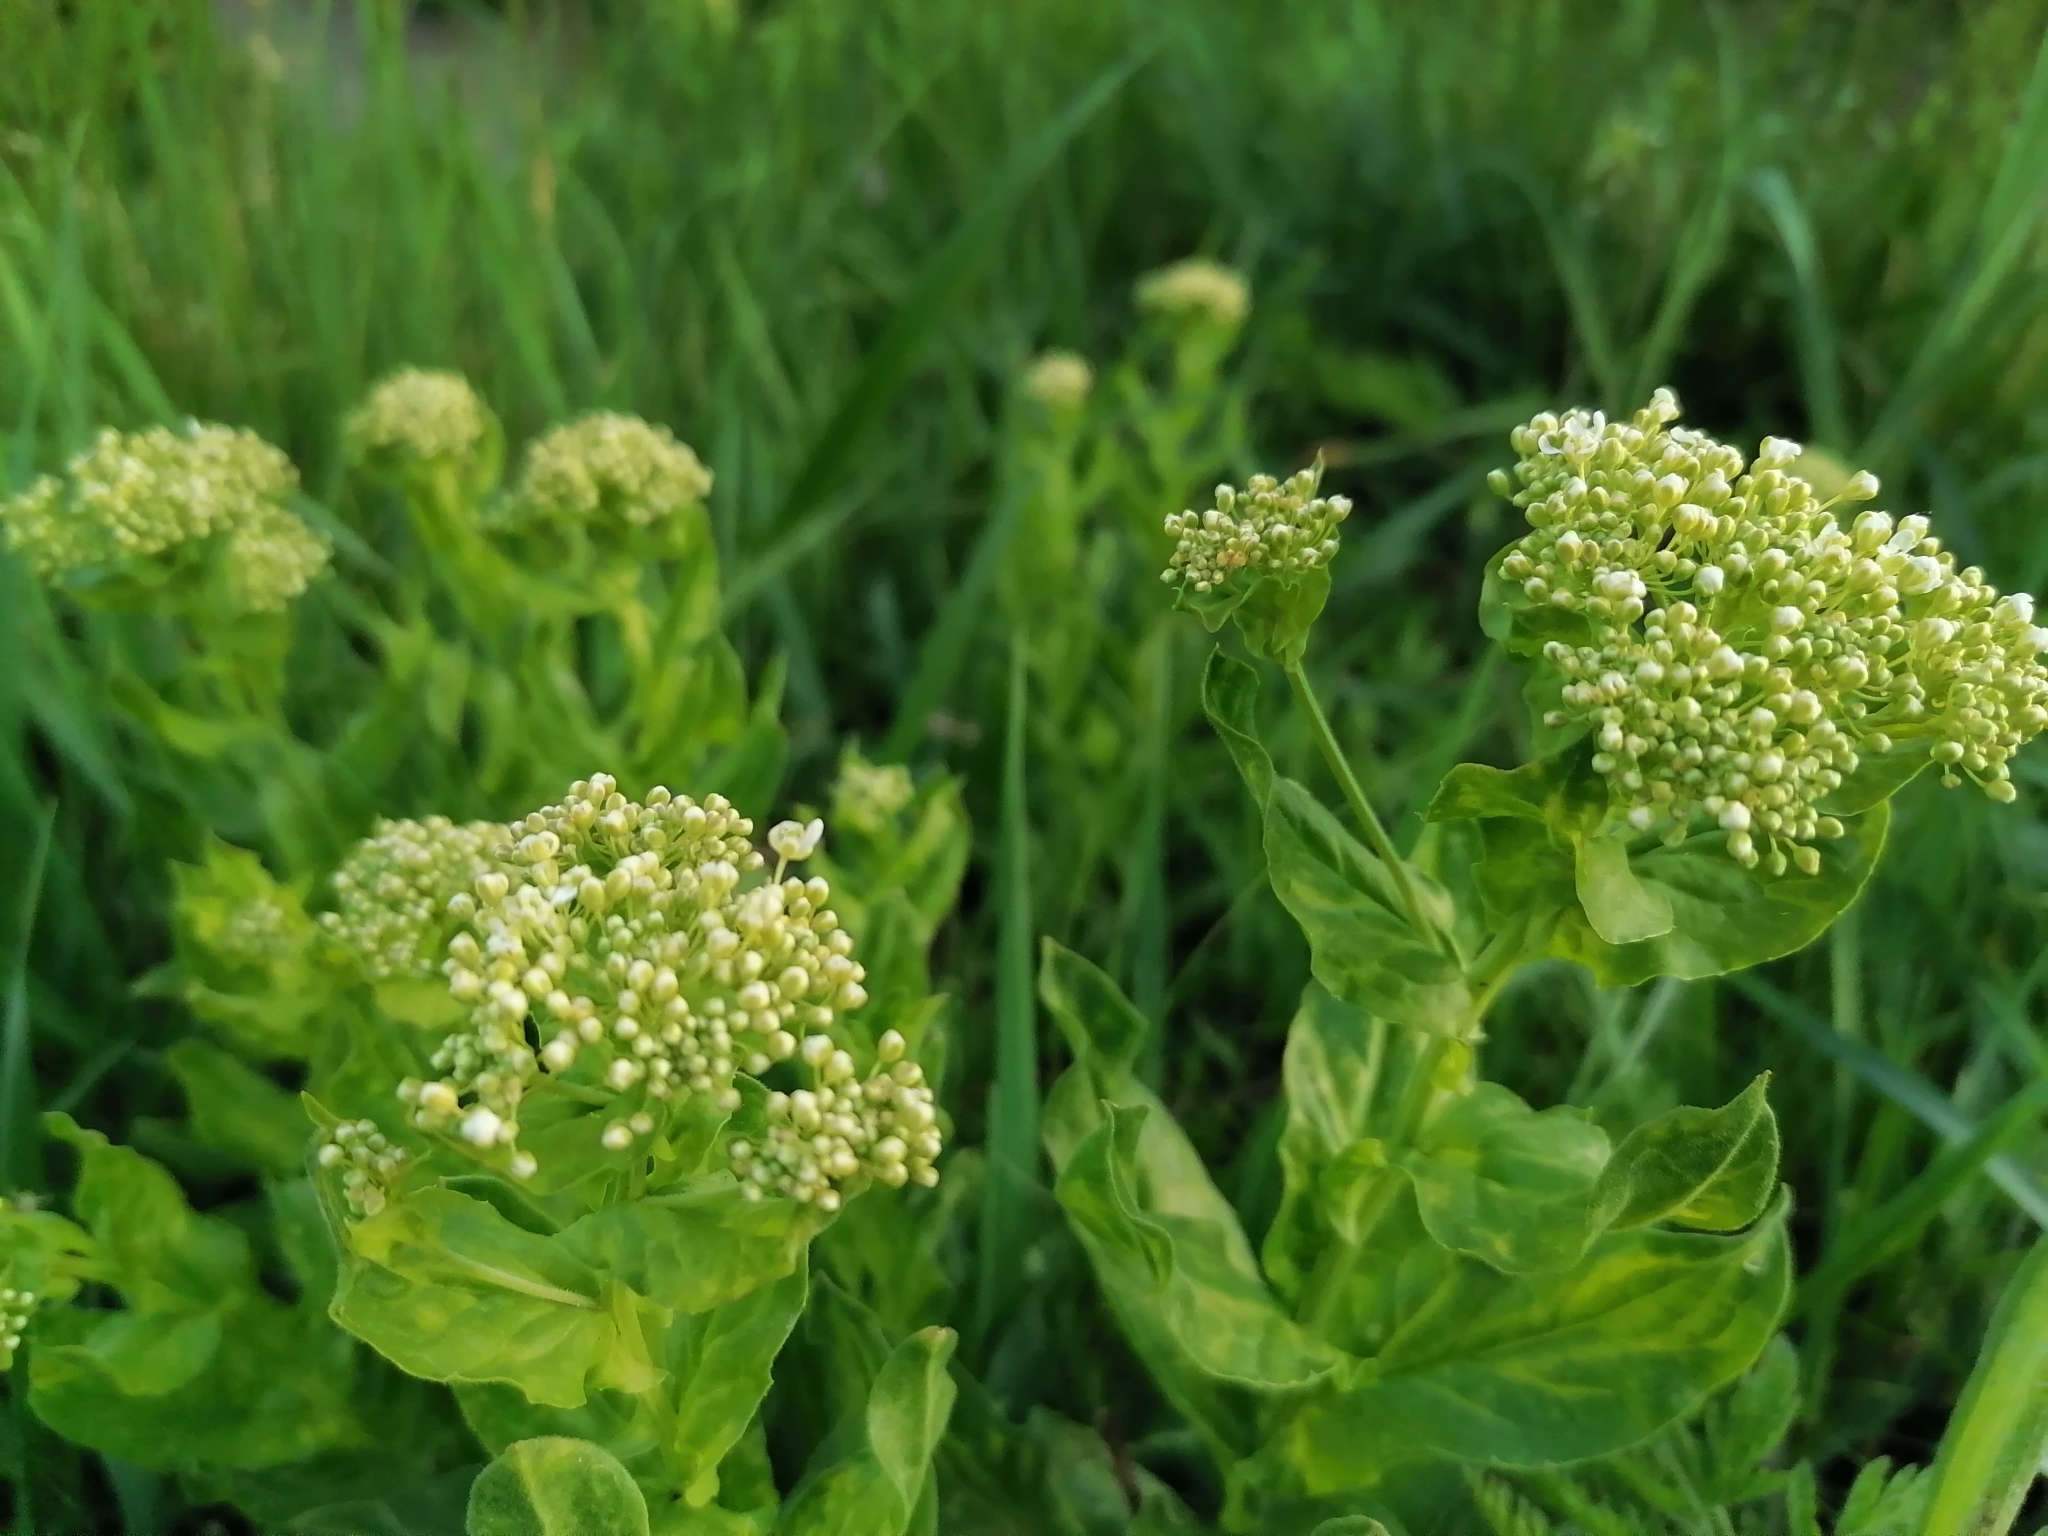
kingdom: Plantae
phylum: Tracheophyta
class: Magnoliopsida
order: Brassicales
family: Brassicaceae
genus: Lepidium
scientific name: Lepidium draba
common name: Hoary cress
